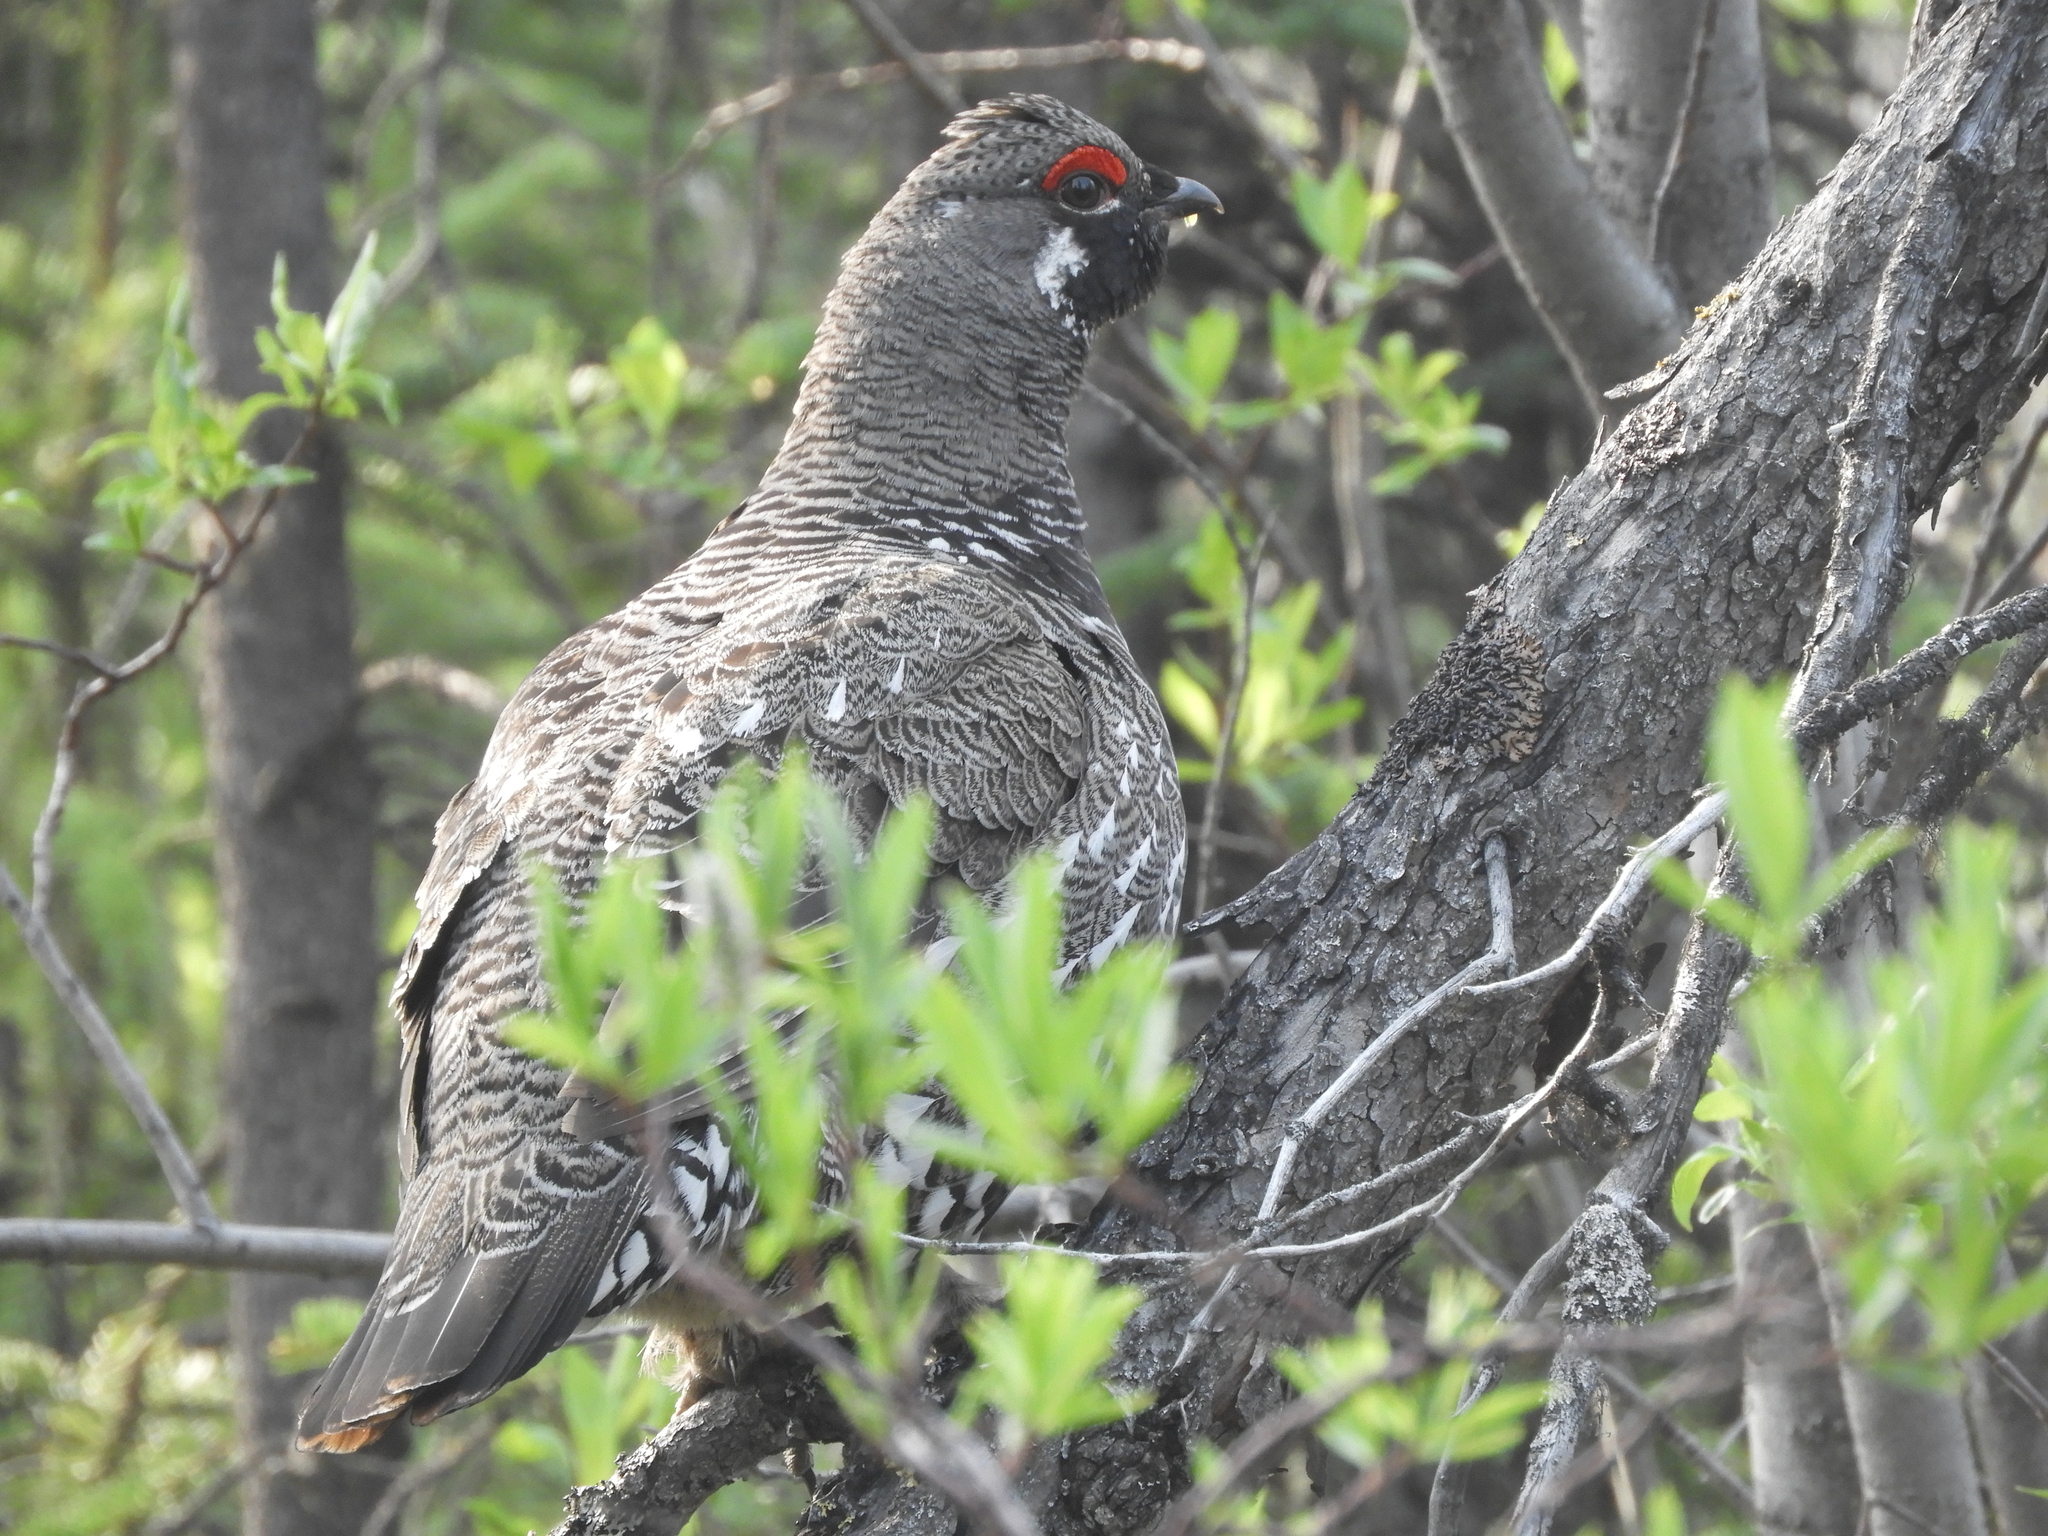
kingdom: Animalia
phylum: Chordata
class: Aves
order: Galliformes
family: Phasianidae
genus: Canachites
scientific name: Canachites canadensis
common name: Spruce grouse
